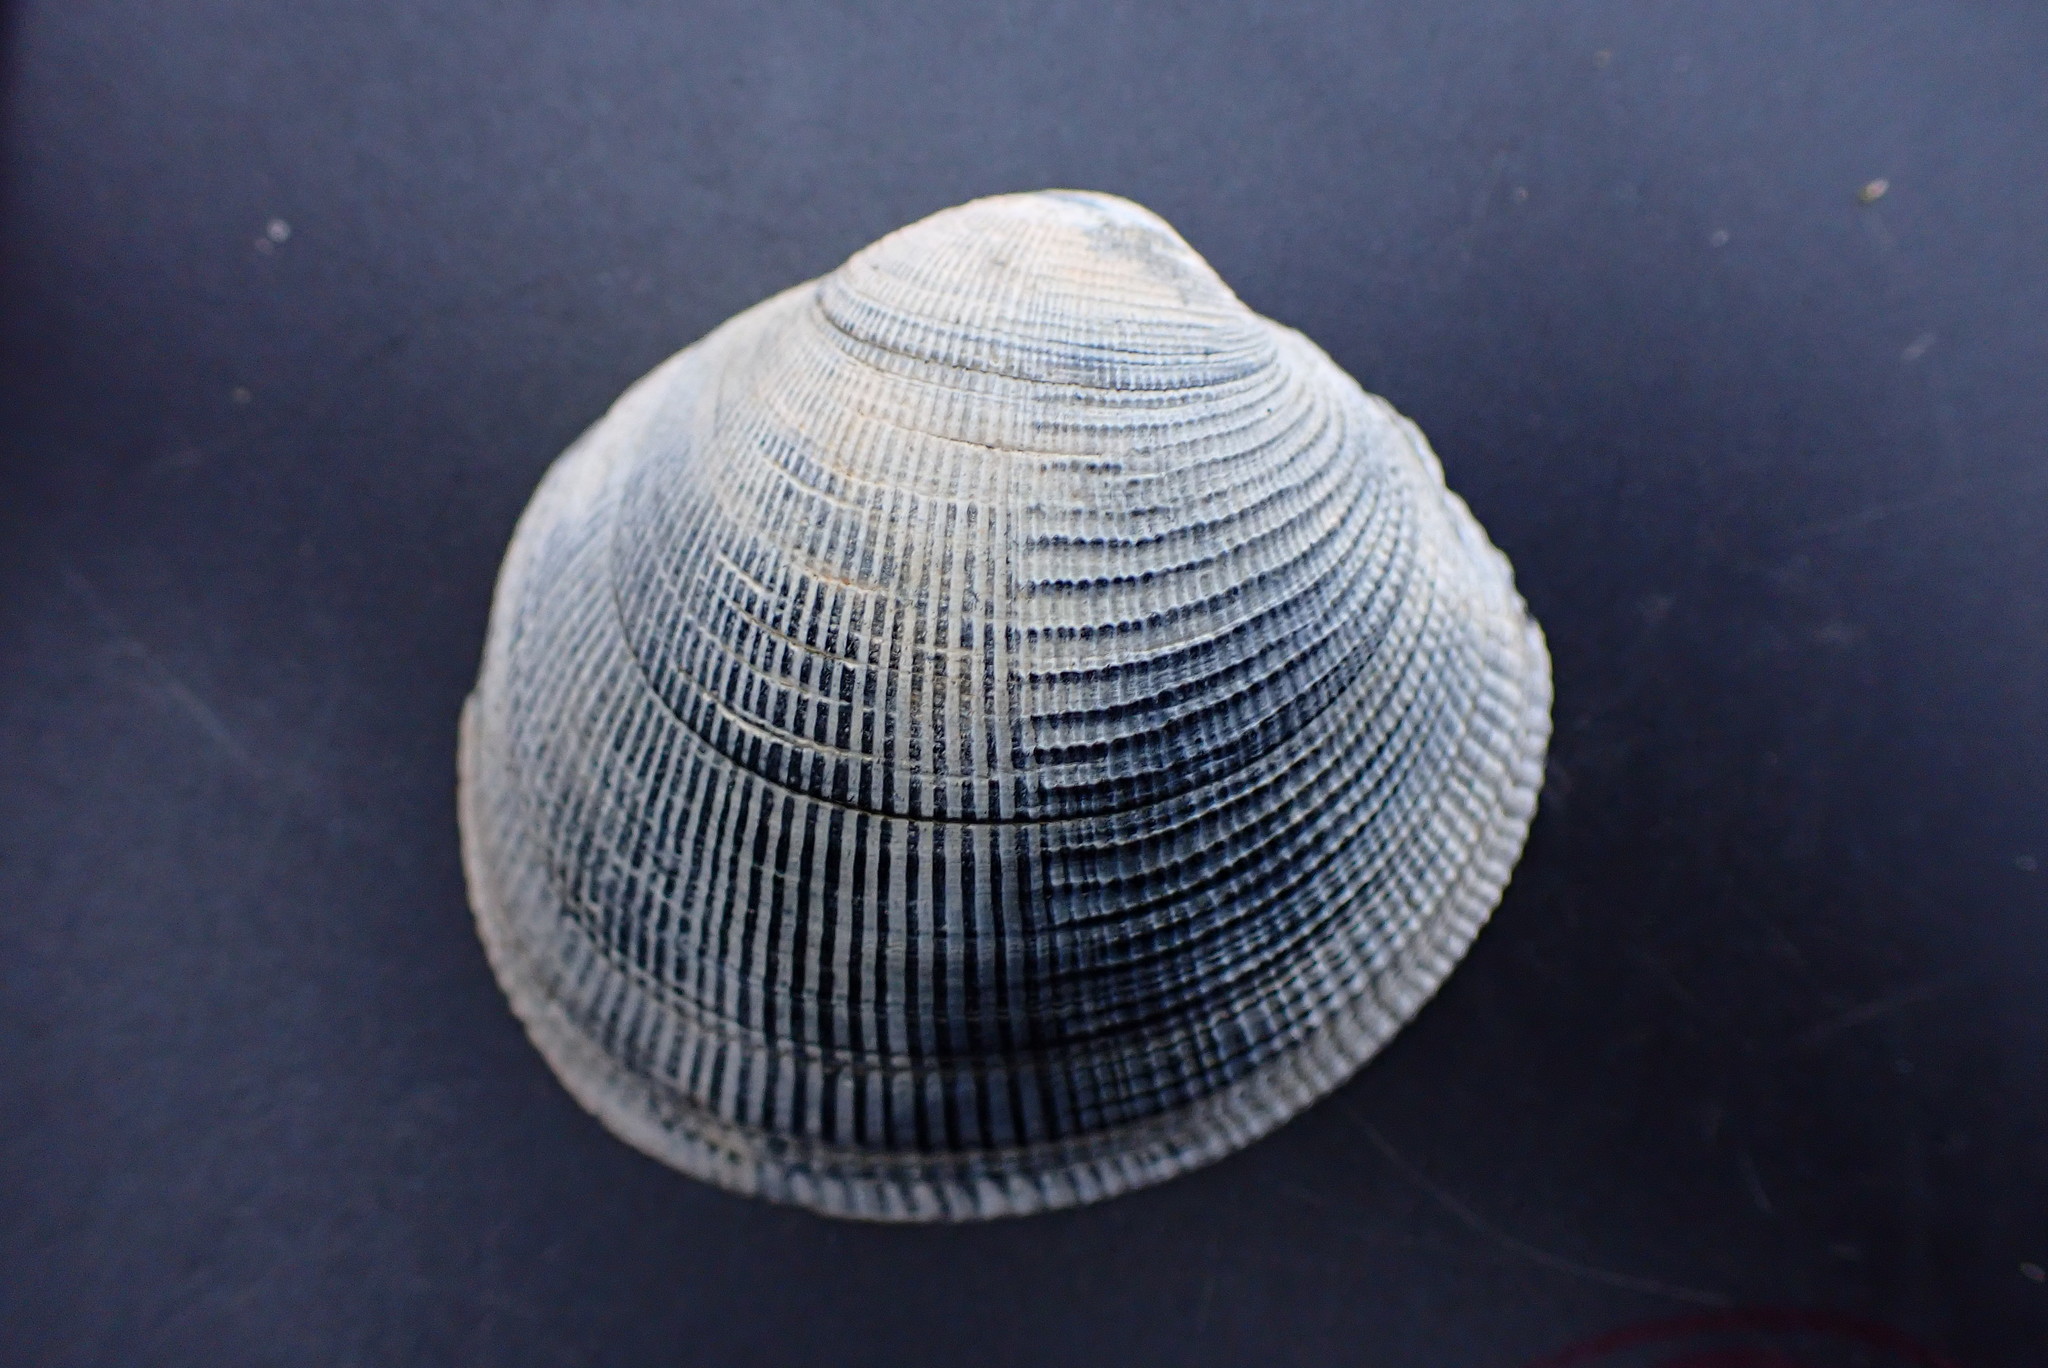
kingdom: Animalia
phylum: Mollusca
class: Bivalvia
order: Venerida
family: Veneridae
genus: Leukoma
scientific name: Leukoma staminea
